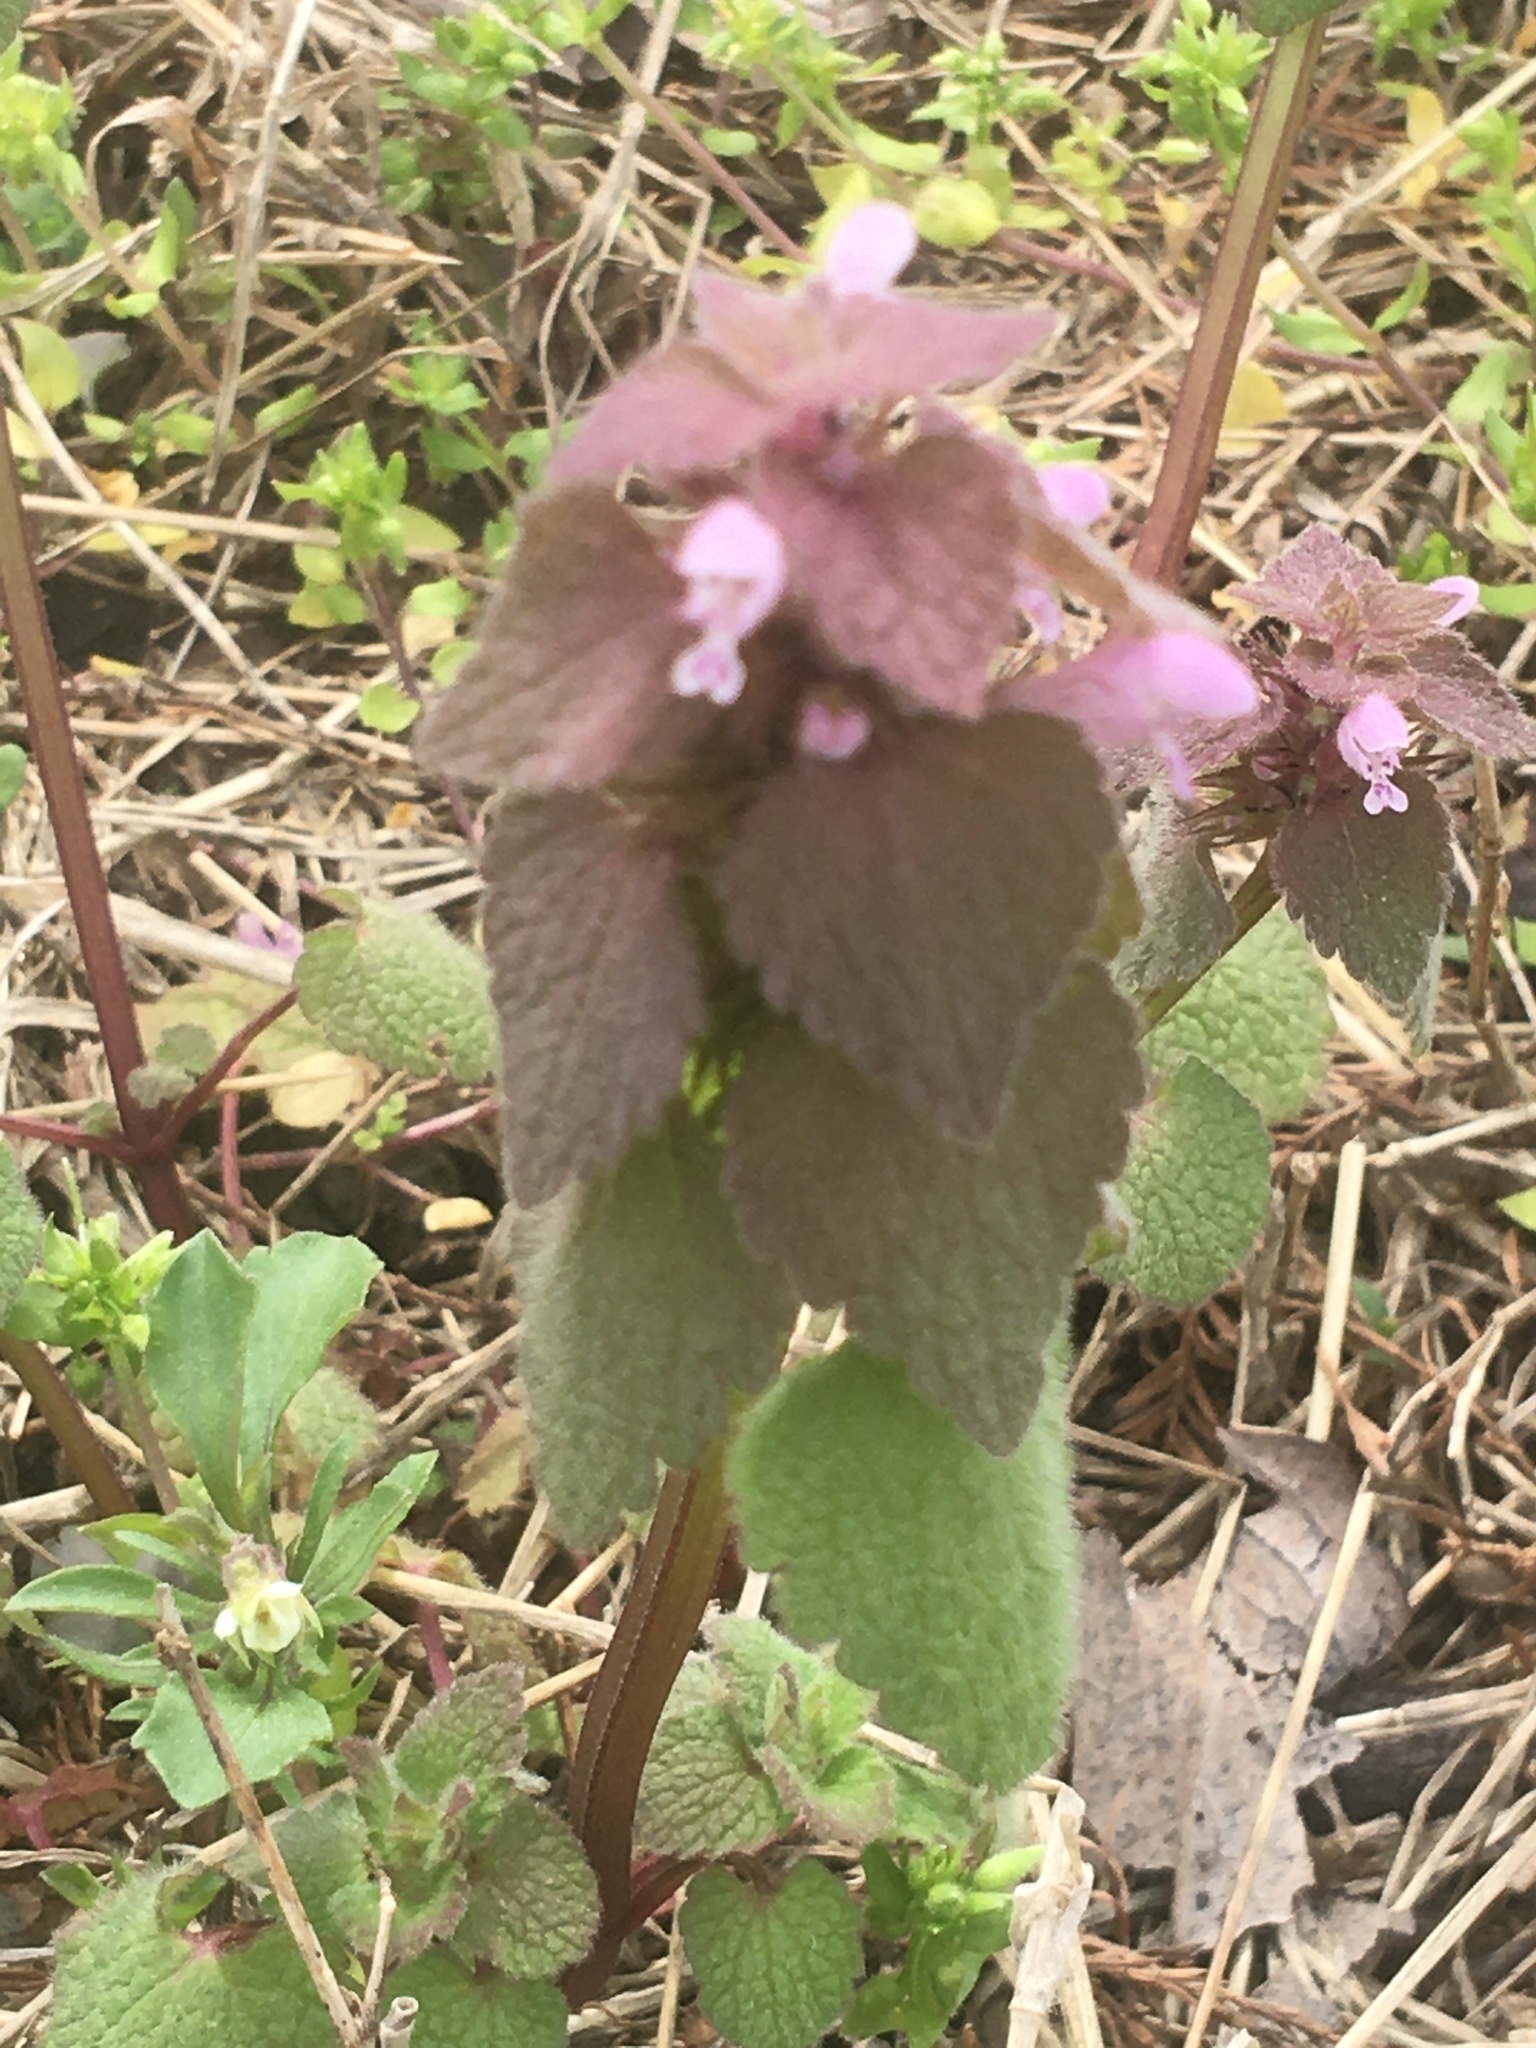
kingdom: Plantae
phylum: Tracheophyta
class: Magnoliopsida
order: Lamiales
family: Lamiaceae
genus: Lamium
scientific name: Lamium purpureum
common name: Red dead-nettle
